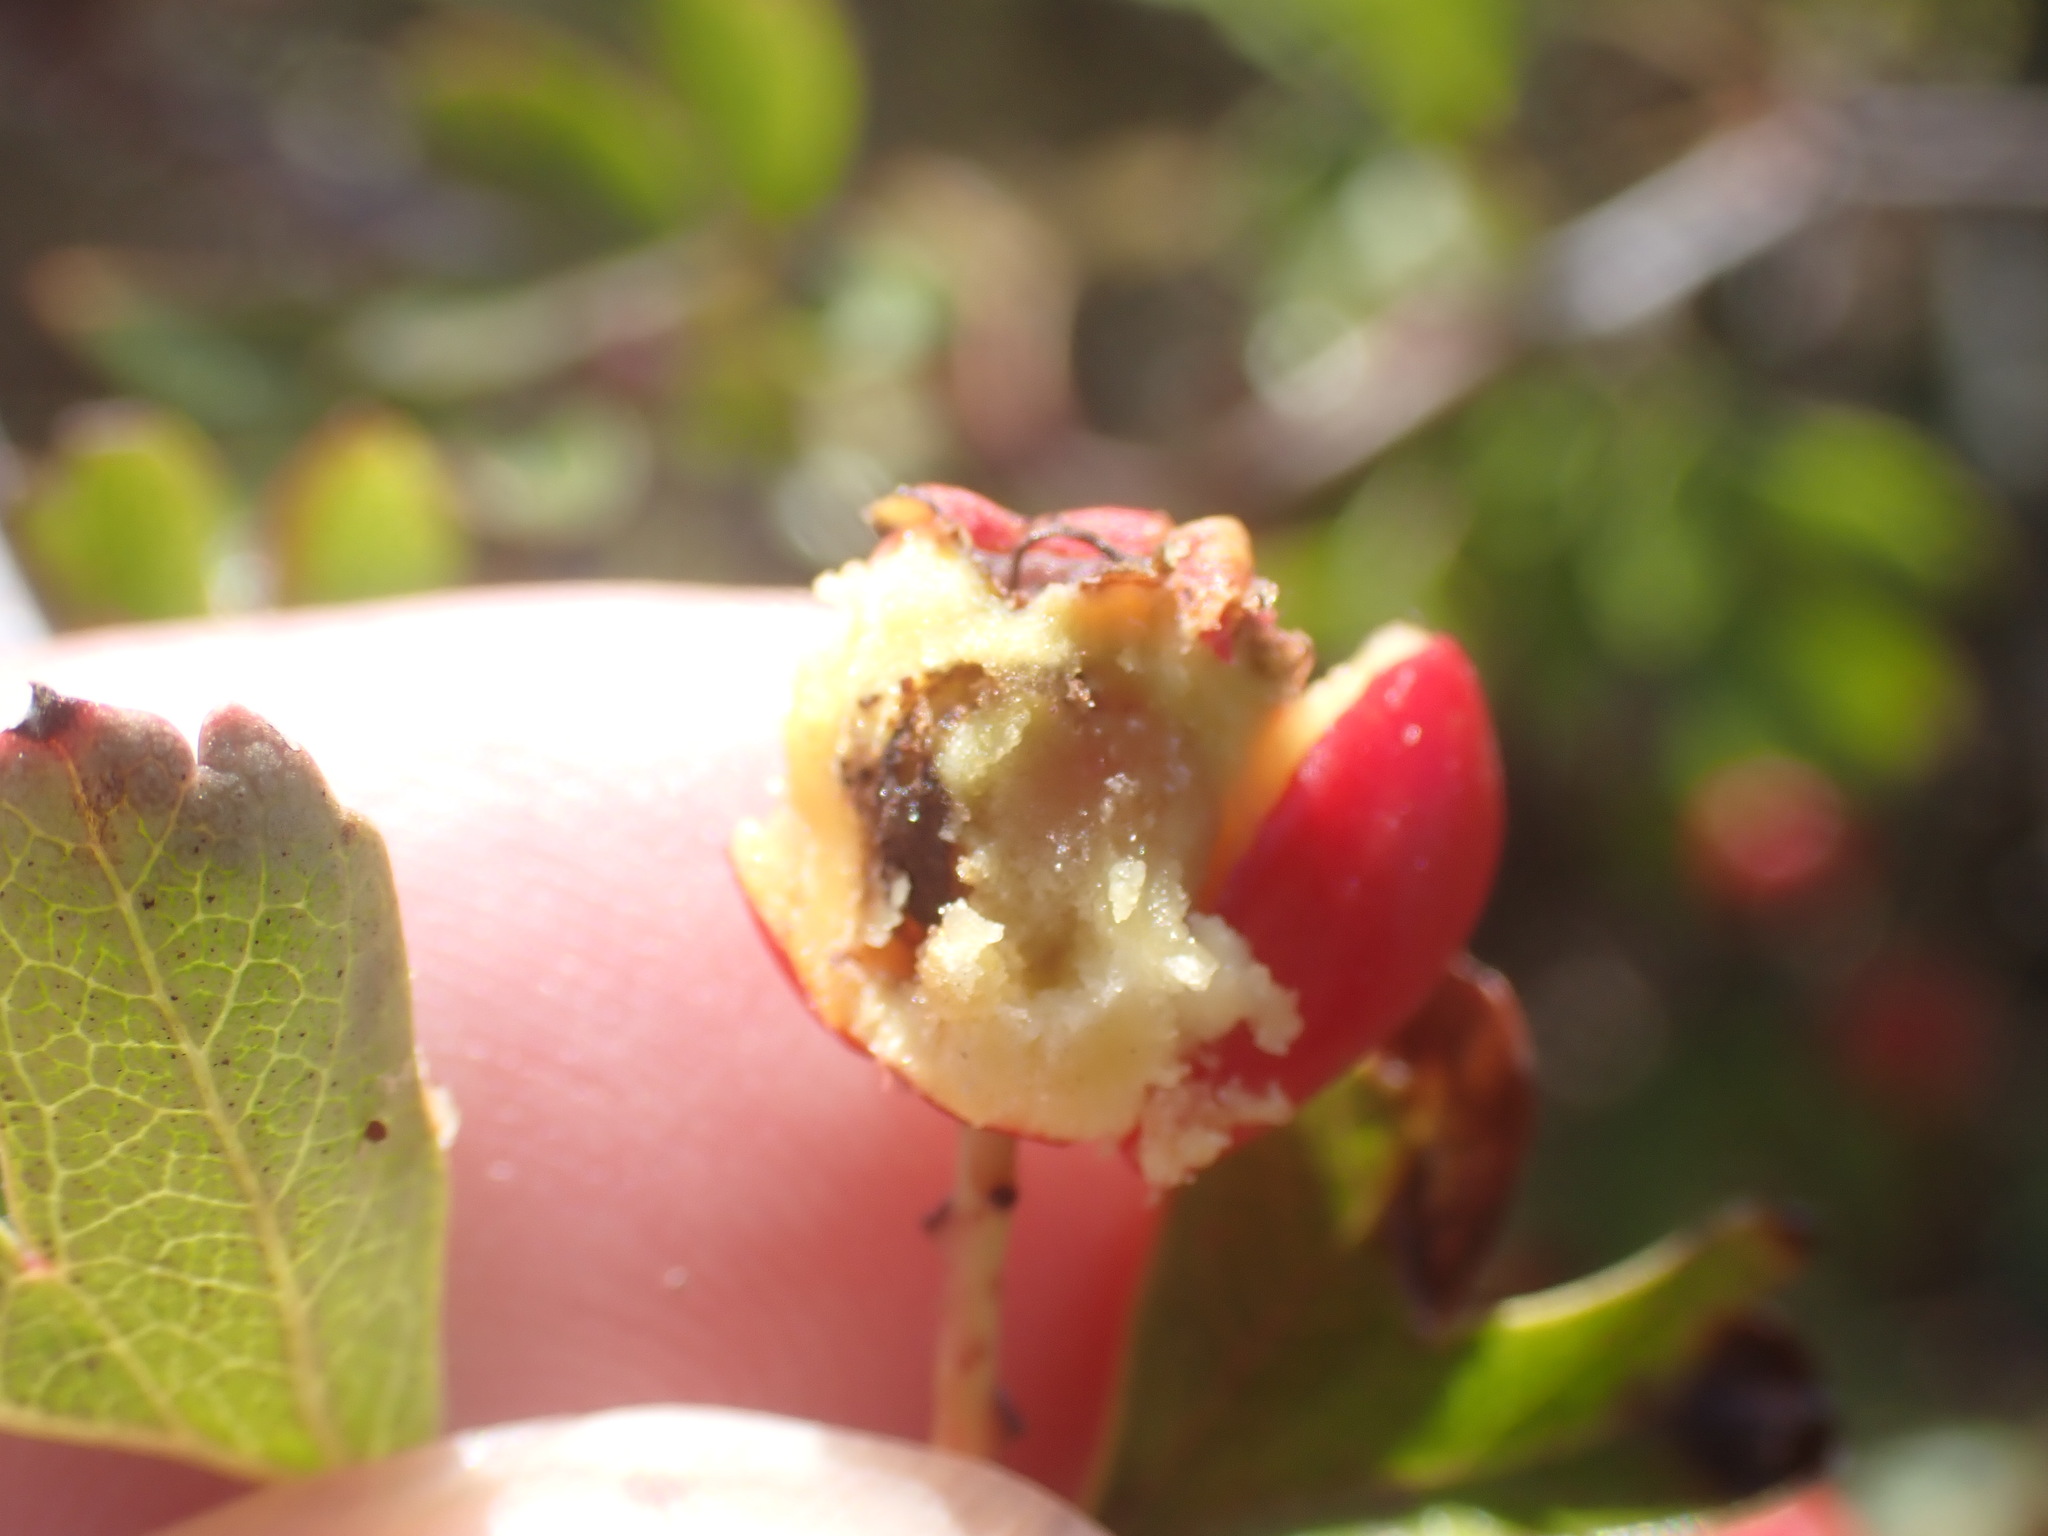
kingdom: Plantae
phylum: Tracheophyta
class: Magnoliopsida
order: Rosales
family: Rosaceae
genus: Crataegus
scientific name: Crataegus monogyna
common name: Hawthorn
